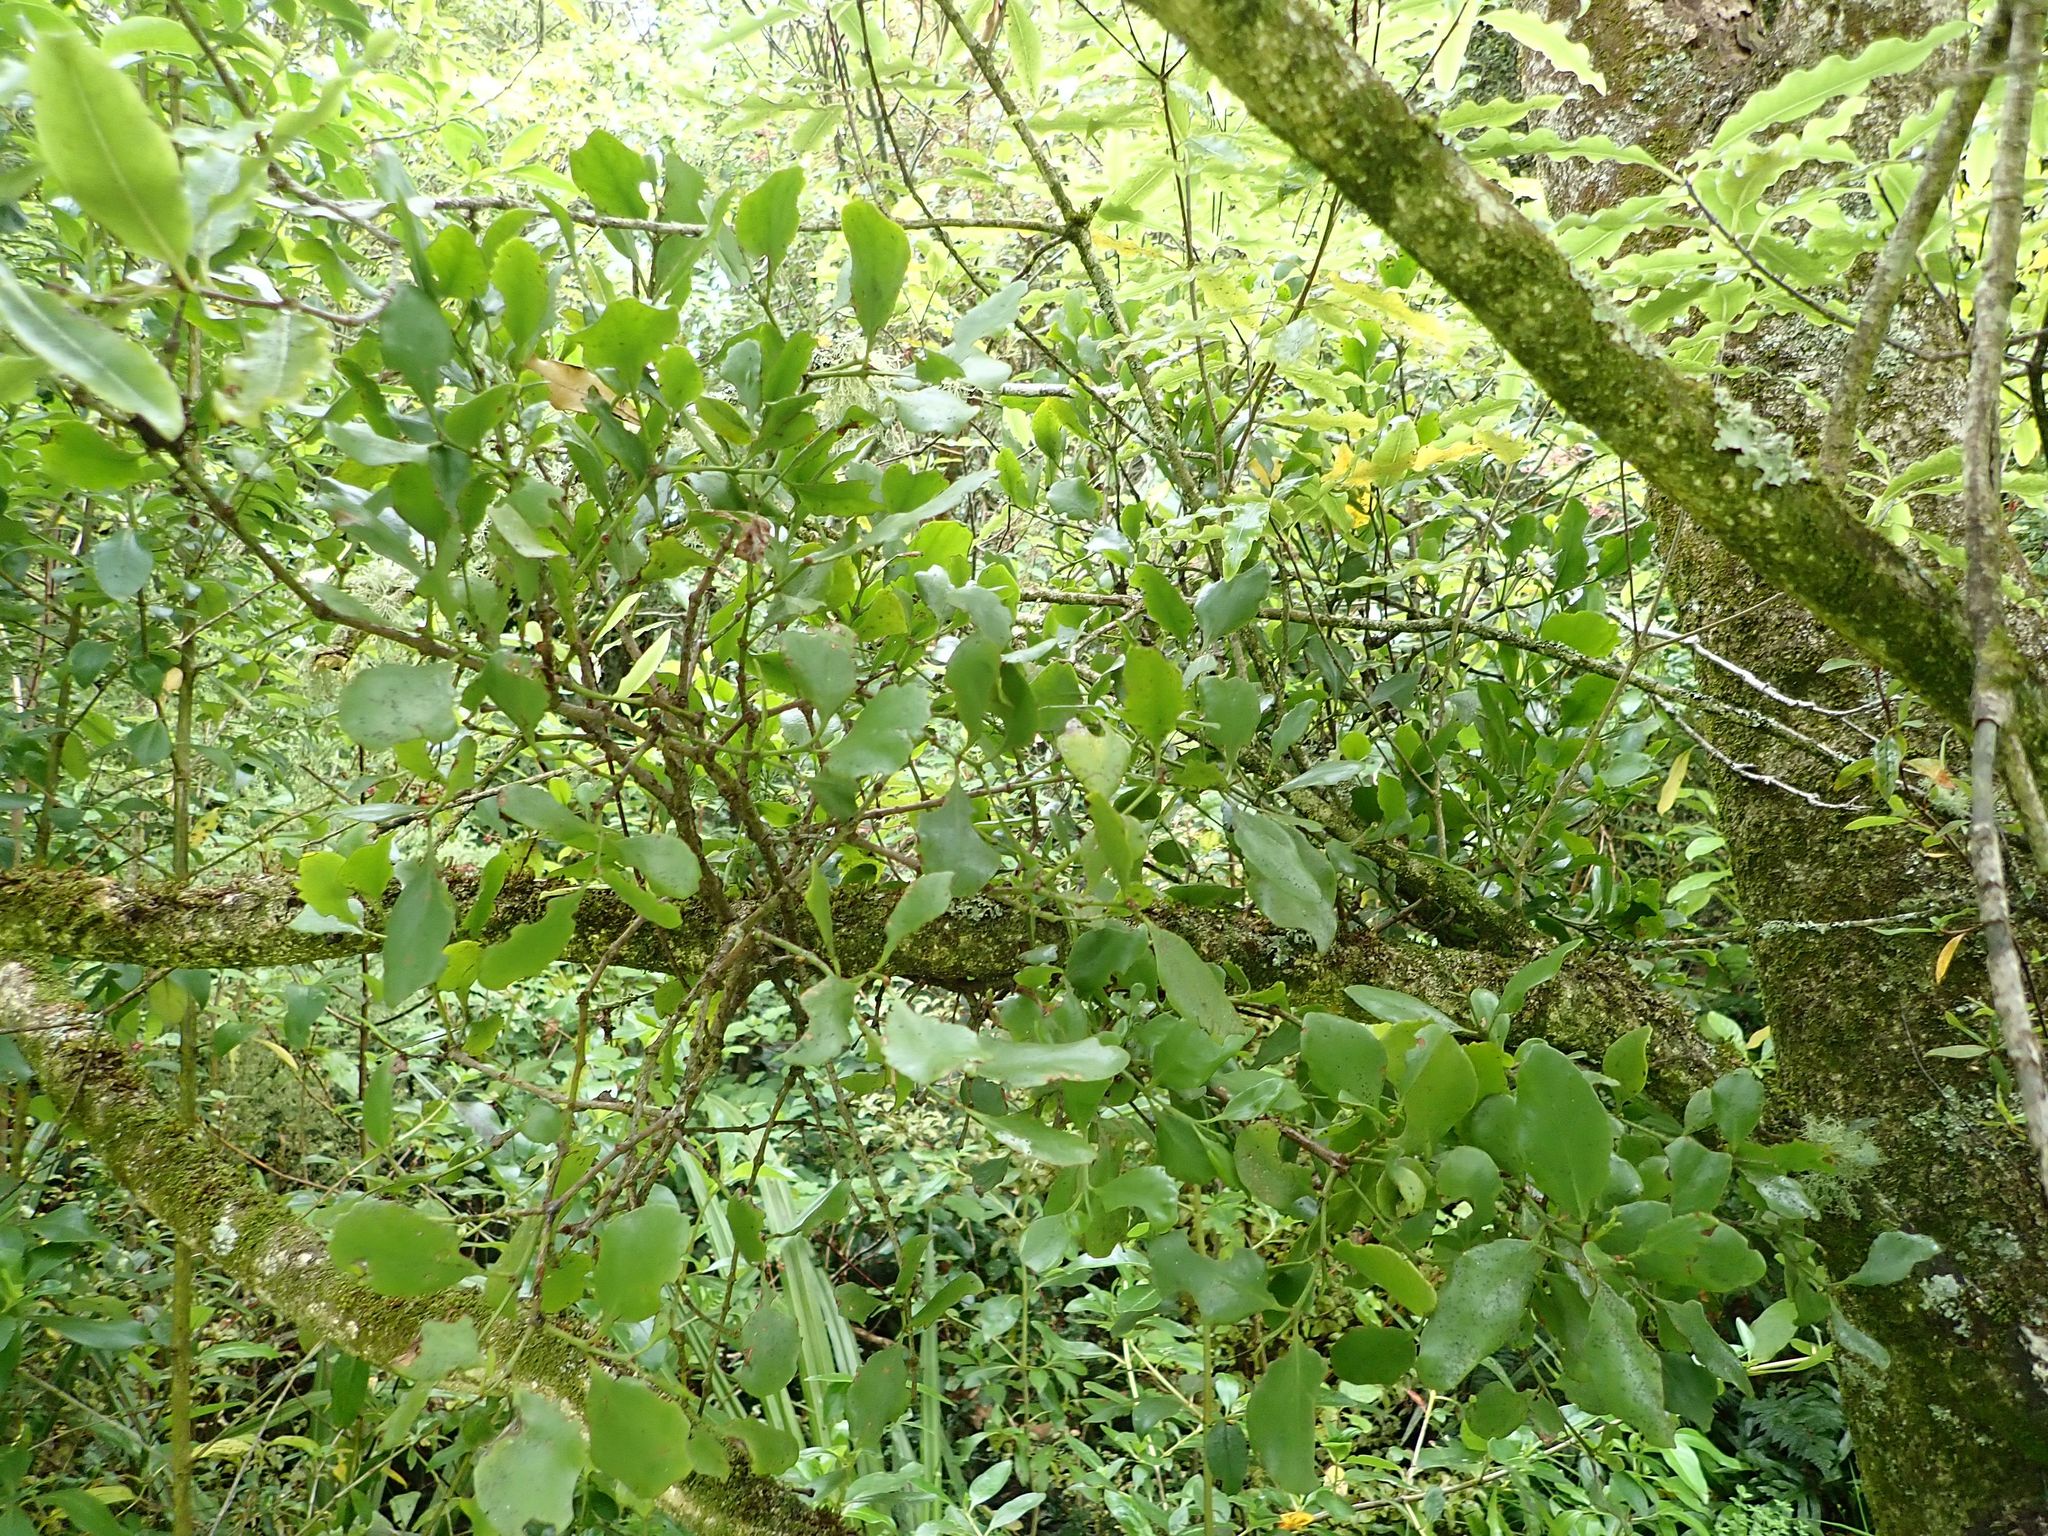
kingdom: Plantae
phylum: Tracheophyta
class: Magnoliopsida
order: Santalales
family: Loranthaceae
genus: Ileostylus
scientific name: Ileostylus micranthus
